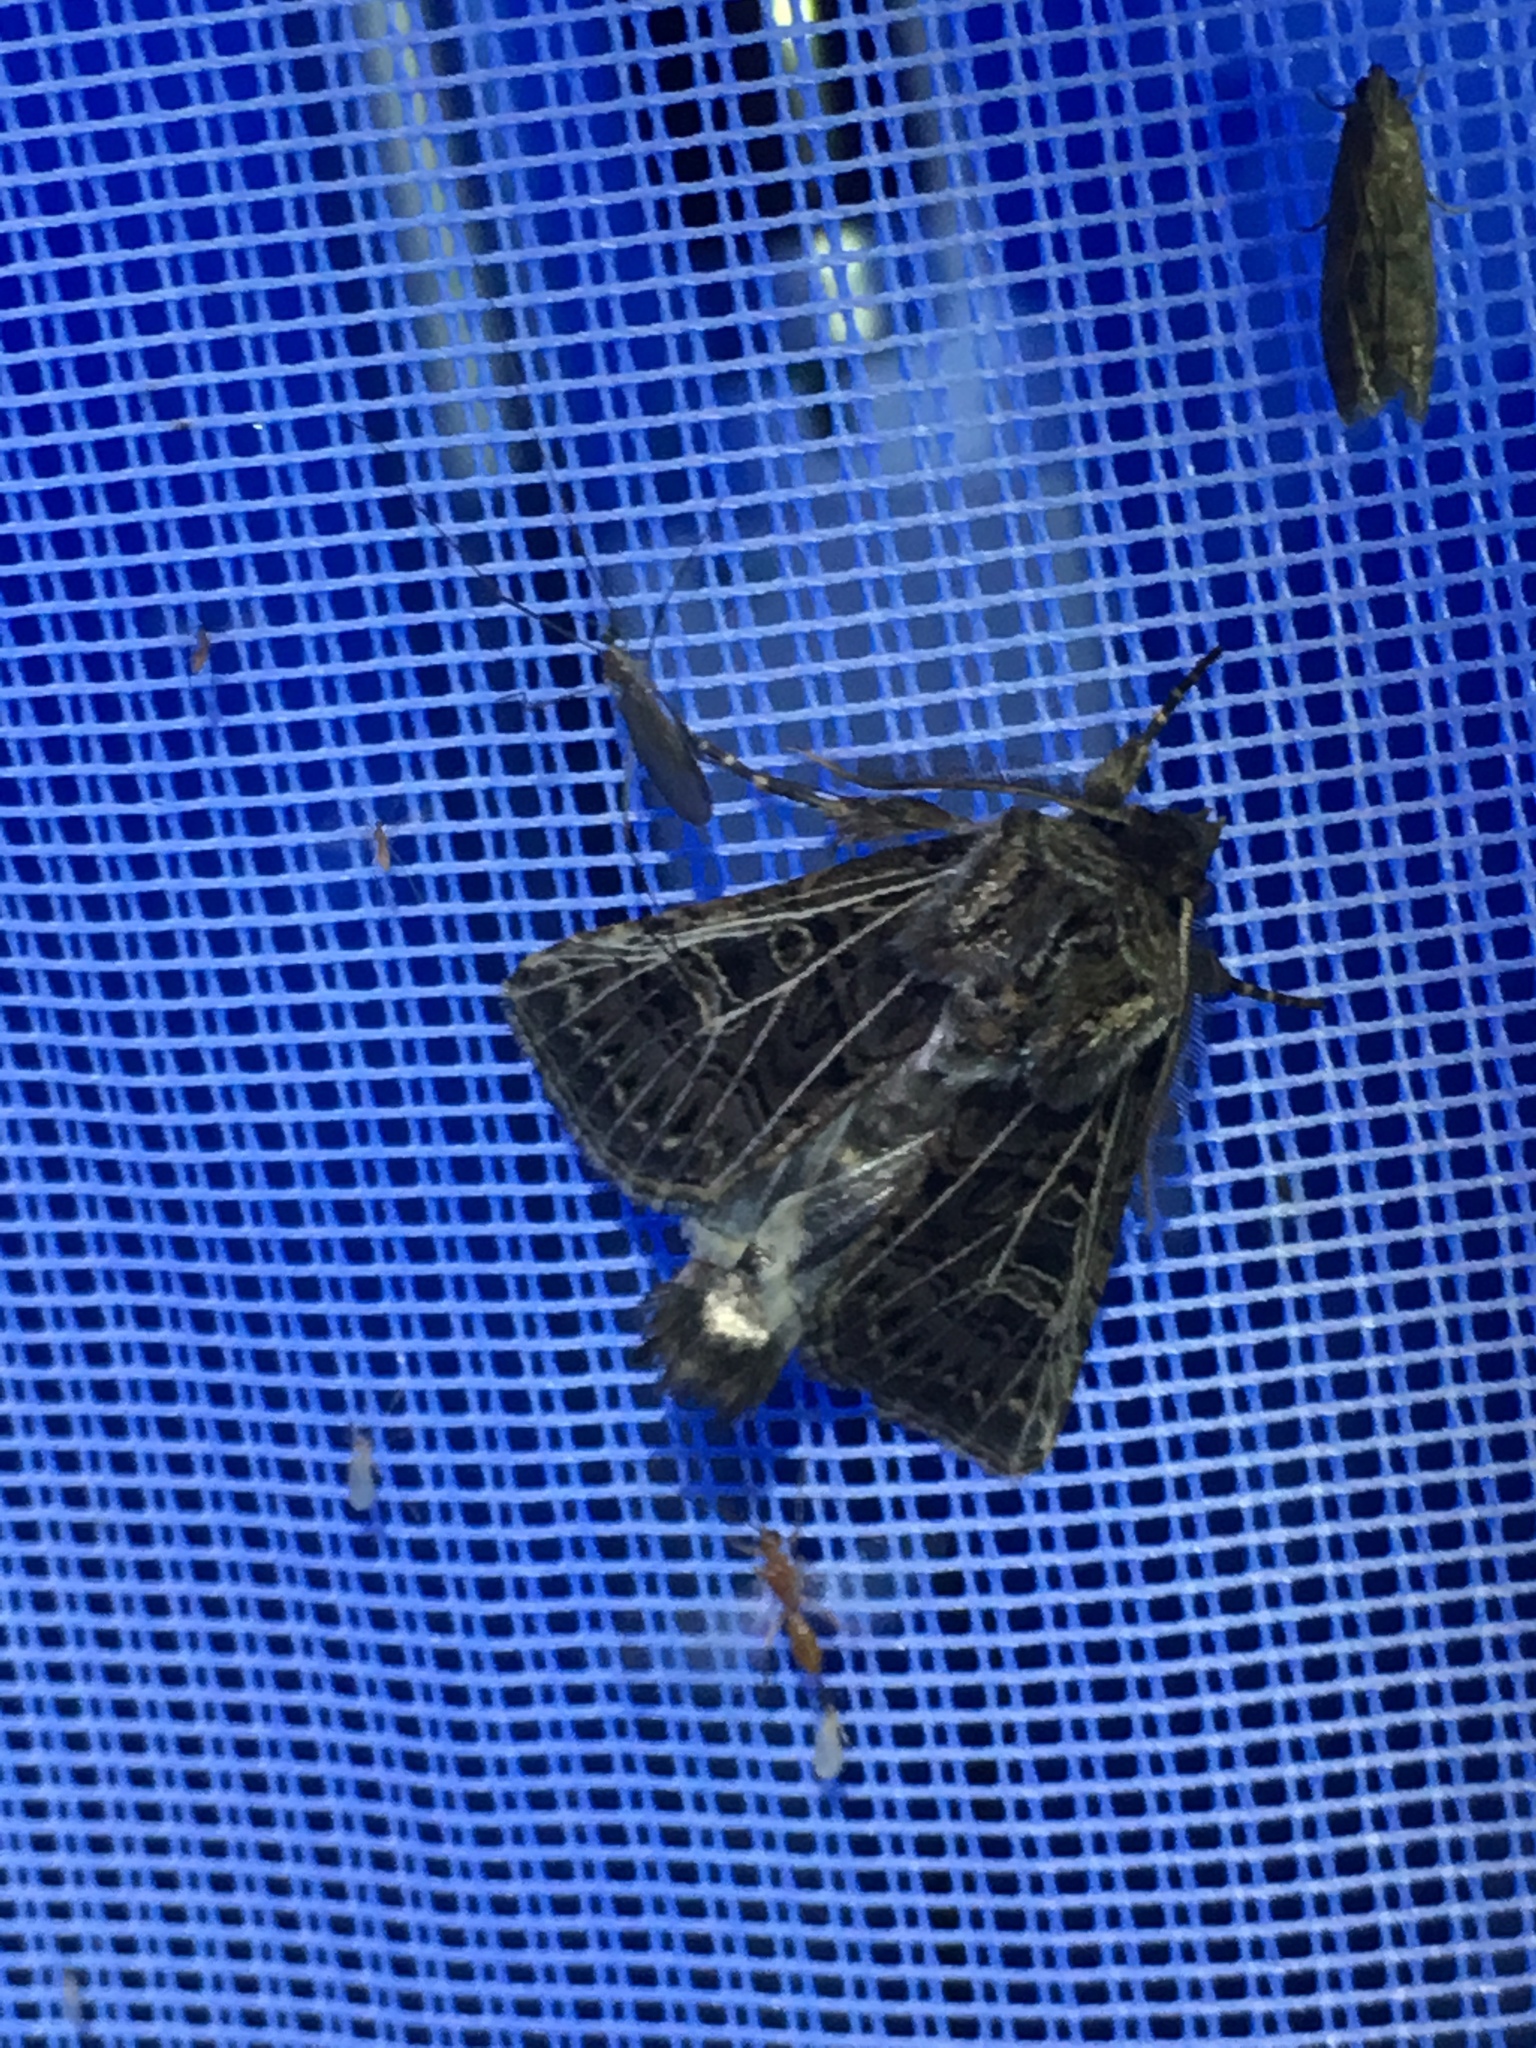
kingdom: Animalia
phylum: Arthropoda
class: Insecta
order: Lepidoptera
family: Noctuidae
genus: Tholera
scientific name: Tholera decimalis
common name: Feathered gothic
